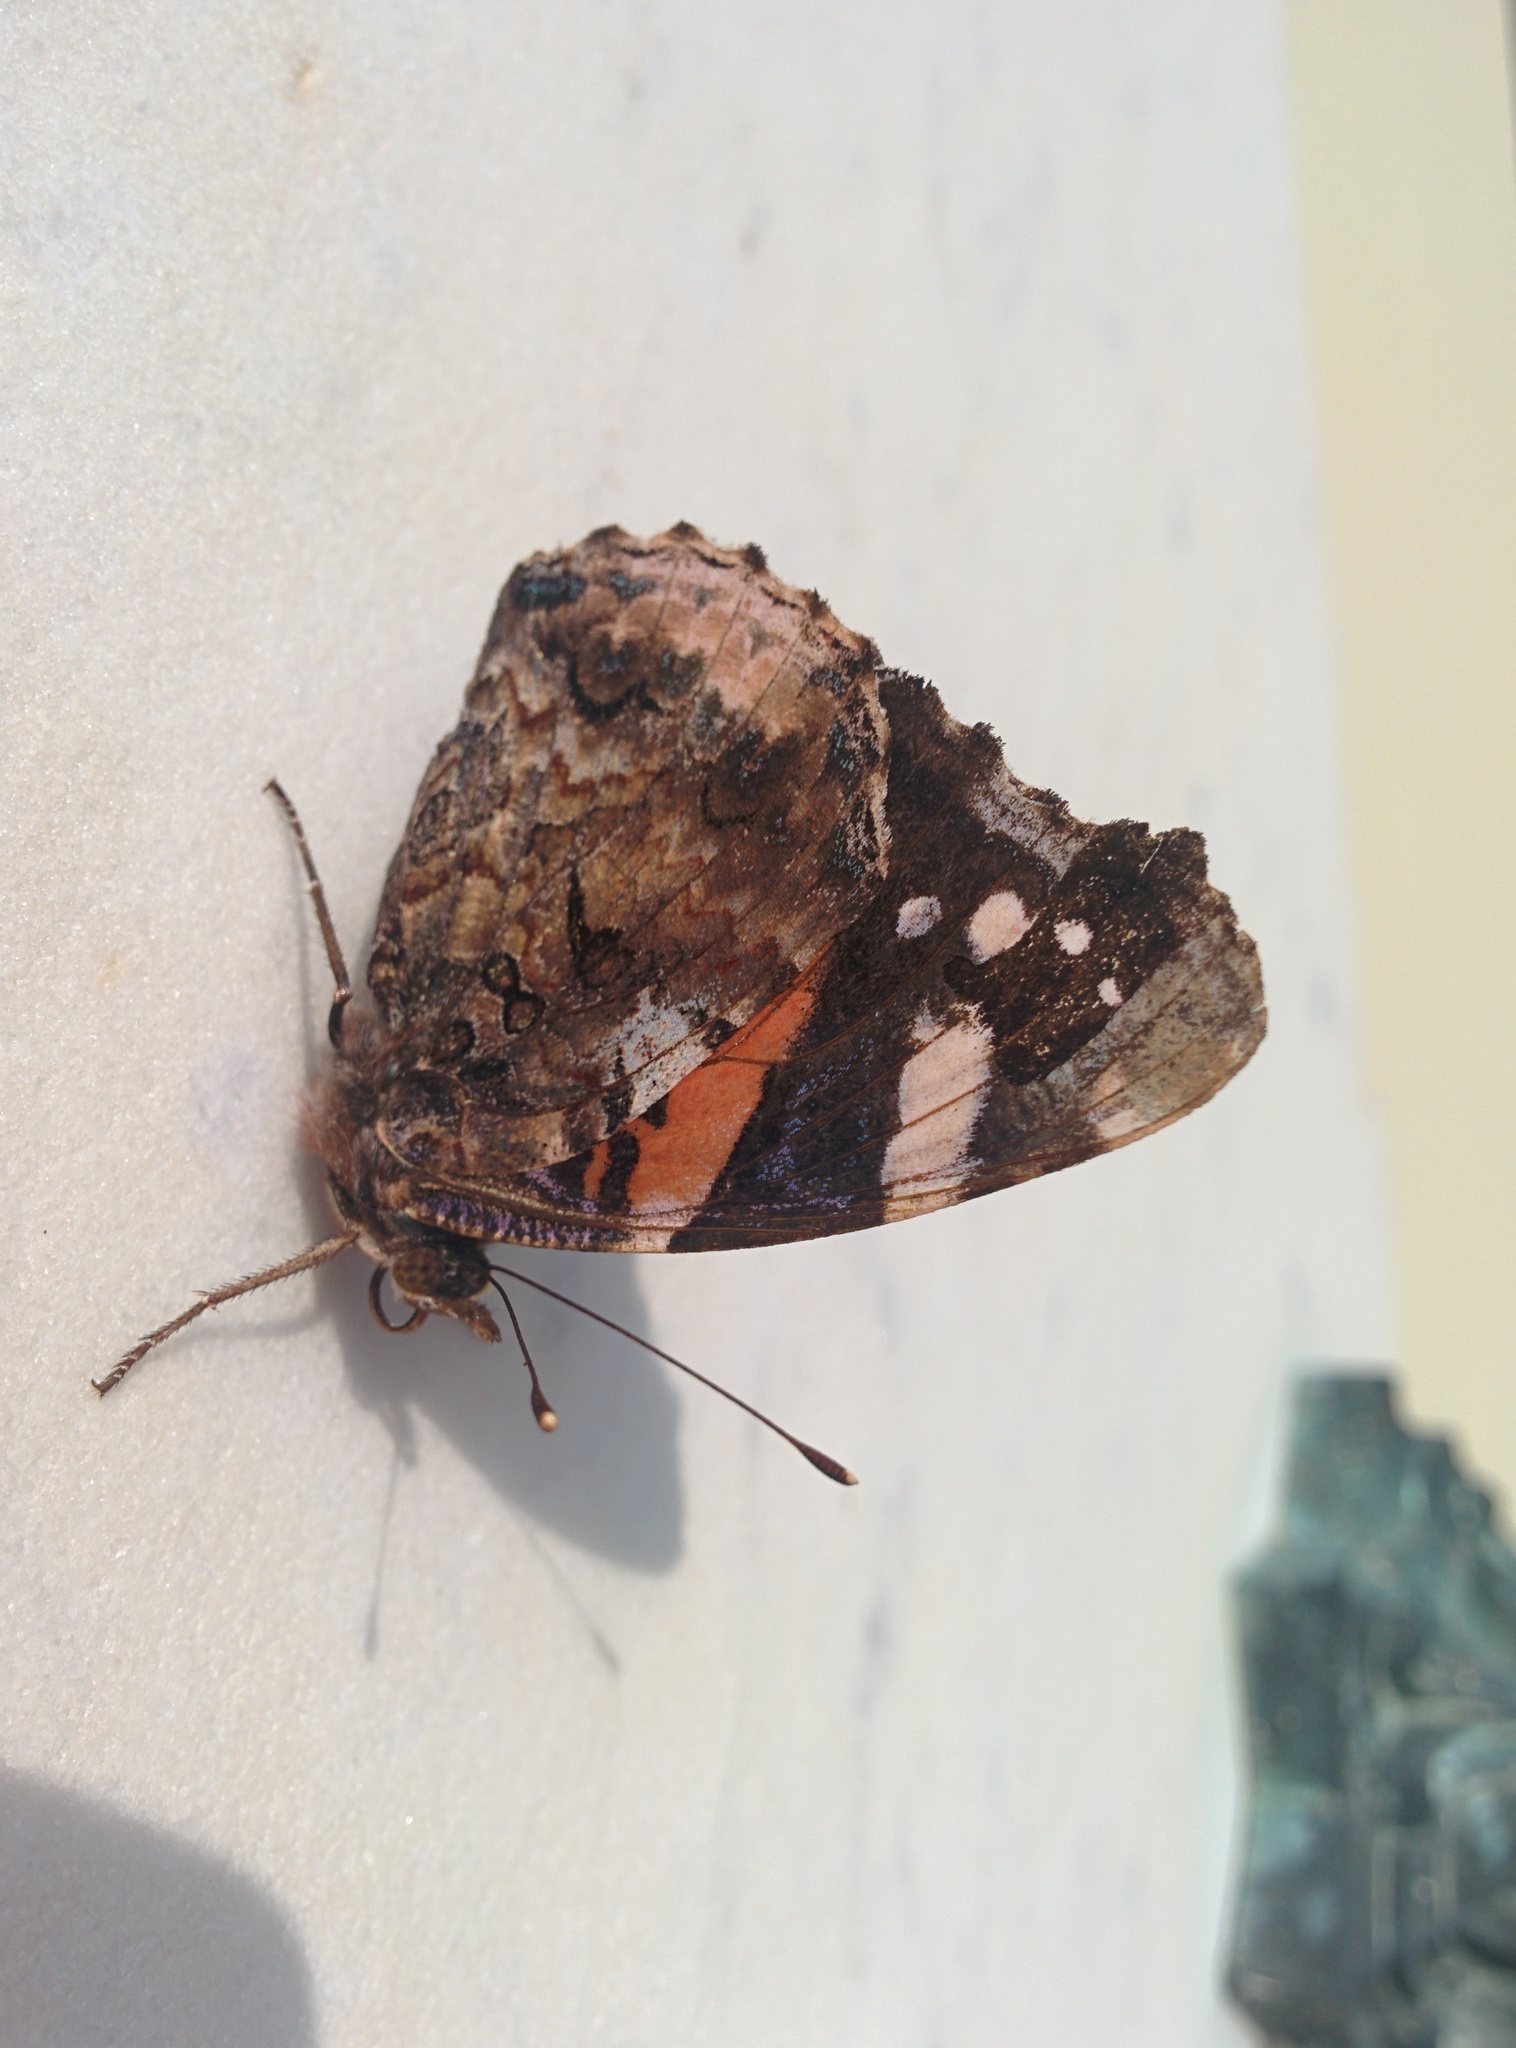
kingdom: Animalia
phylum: Arthropoda
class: Insecta
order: Lepidoptera
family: Nymphalidae
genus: Vanessa
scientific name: Vanessa atalanta
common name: Red admiral
